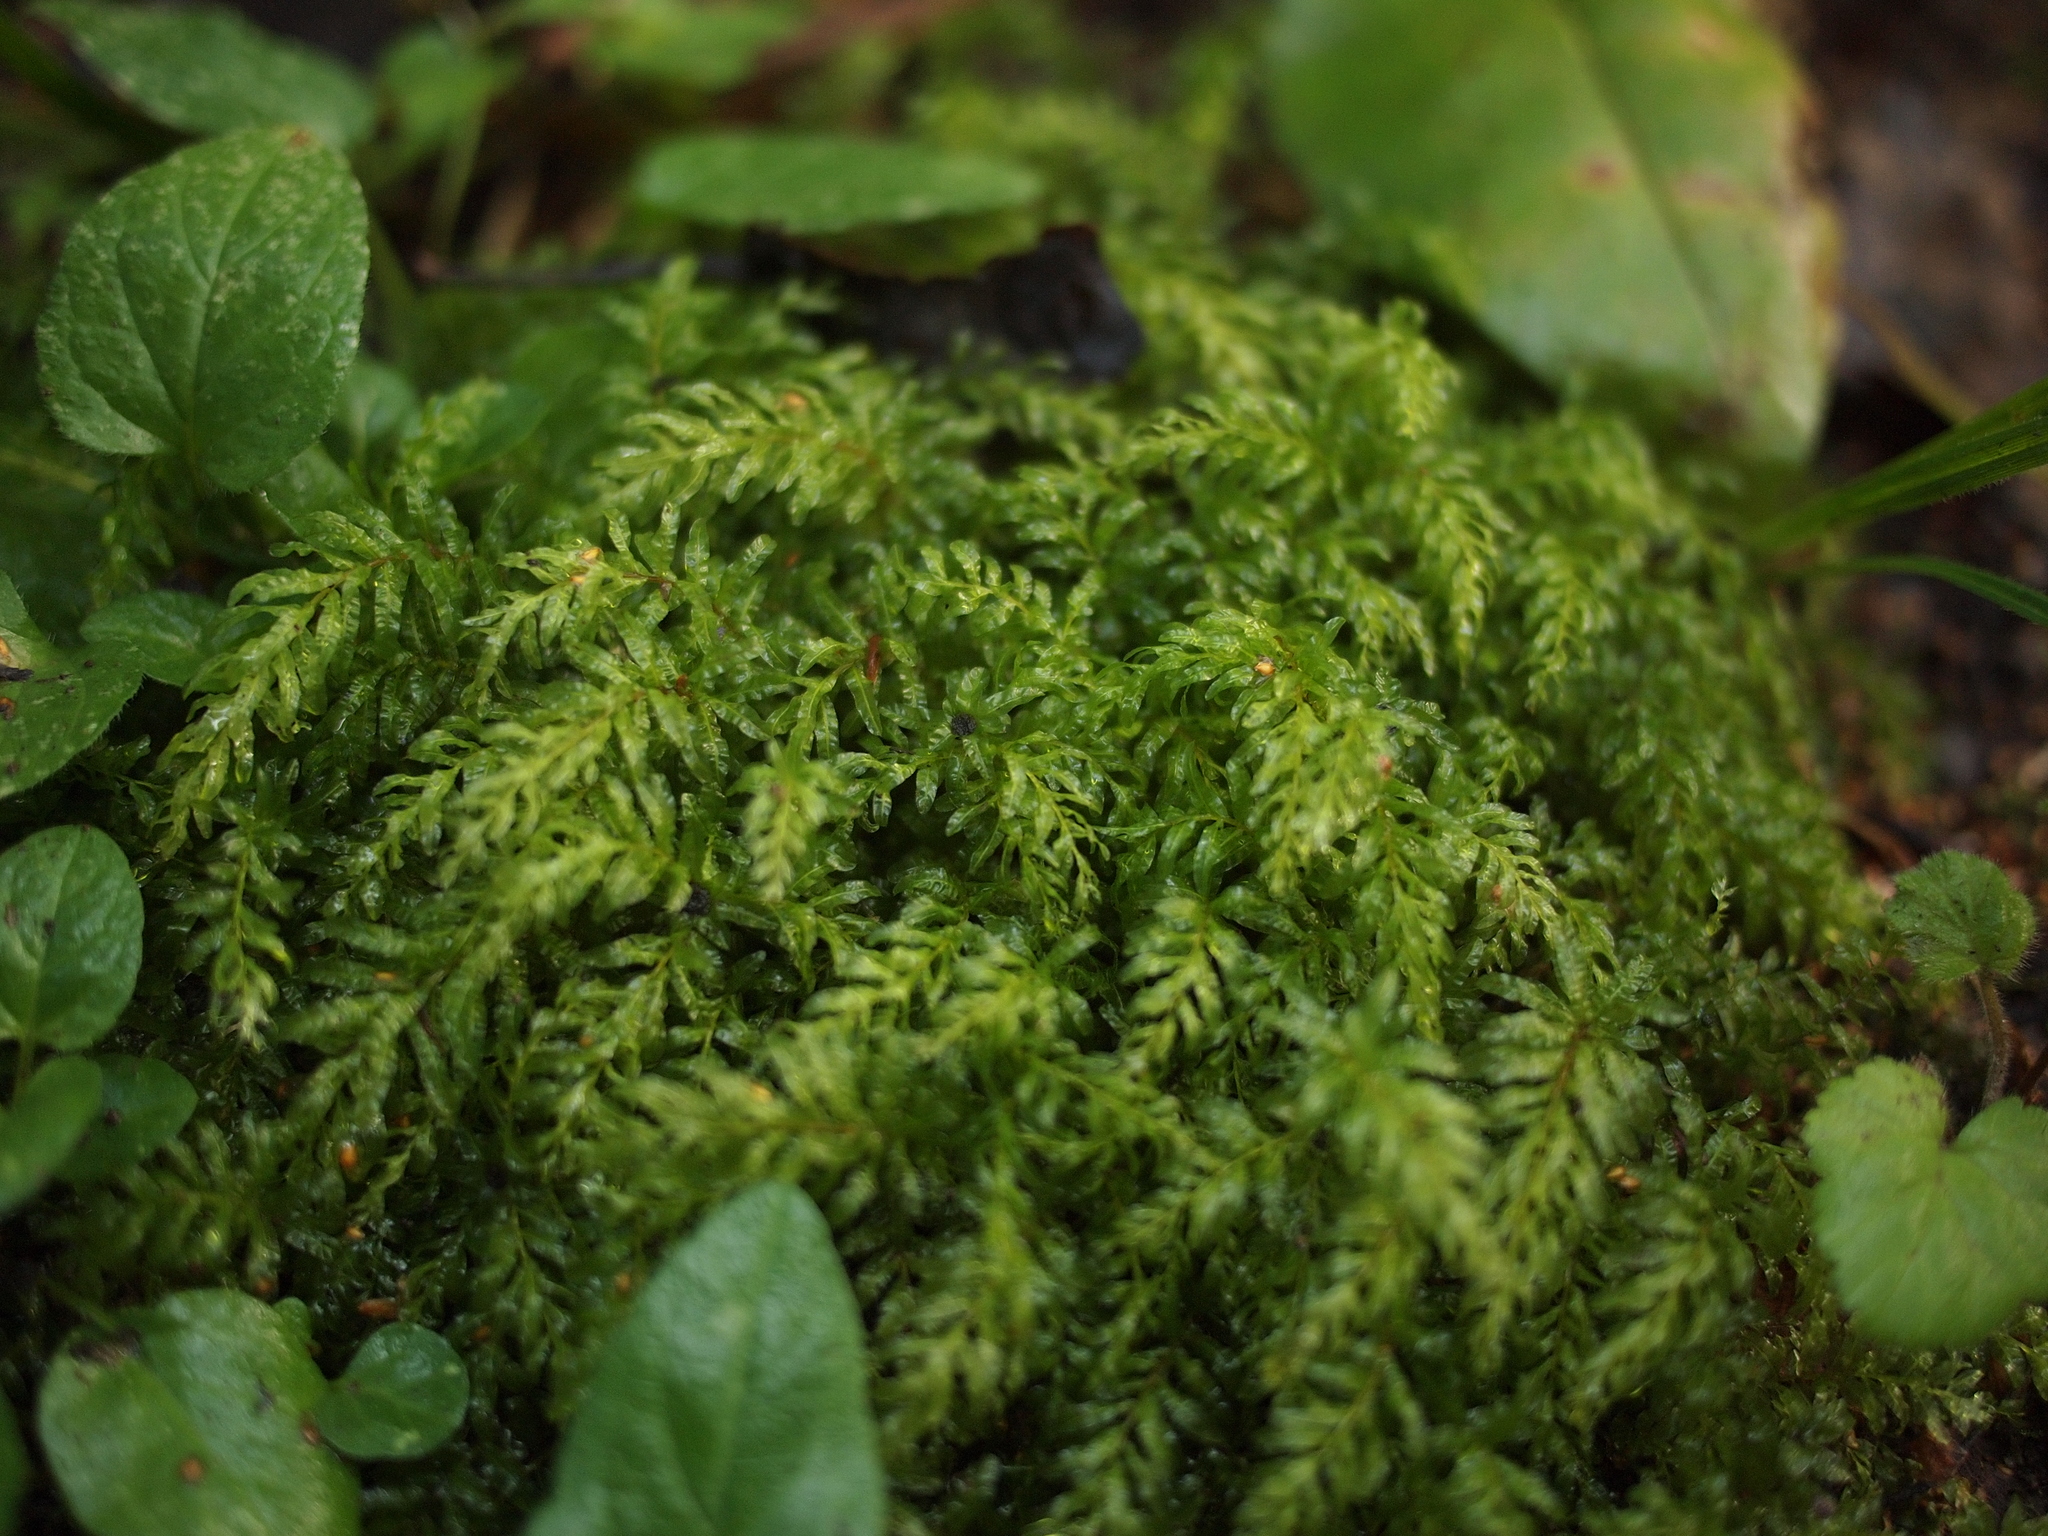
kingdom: Plantae
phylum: Bryophyta
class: Bryopsida
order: Bryales
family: Mniaceae
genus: Plagiomnium
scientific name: Plagiomnium undulatum
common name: Hart's-tongue thyme-moss
